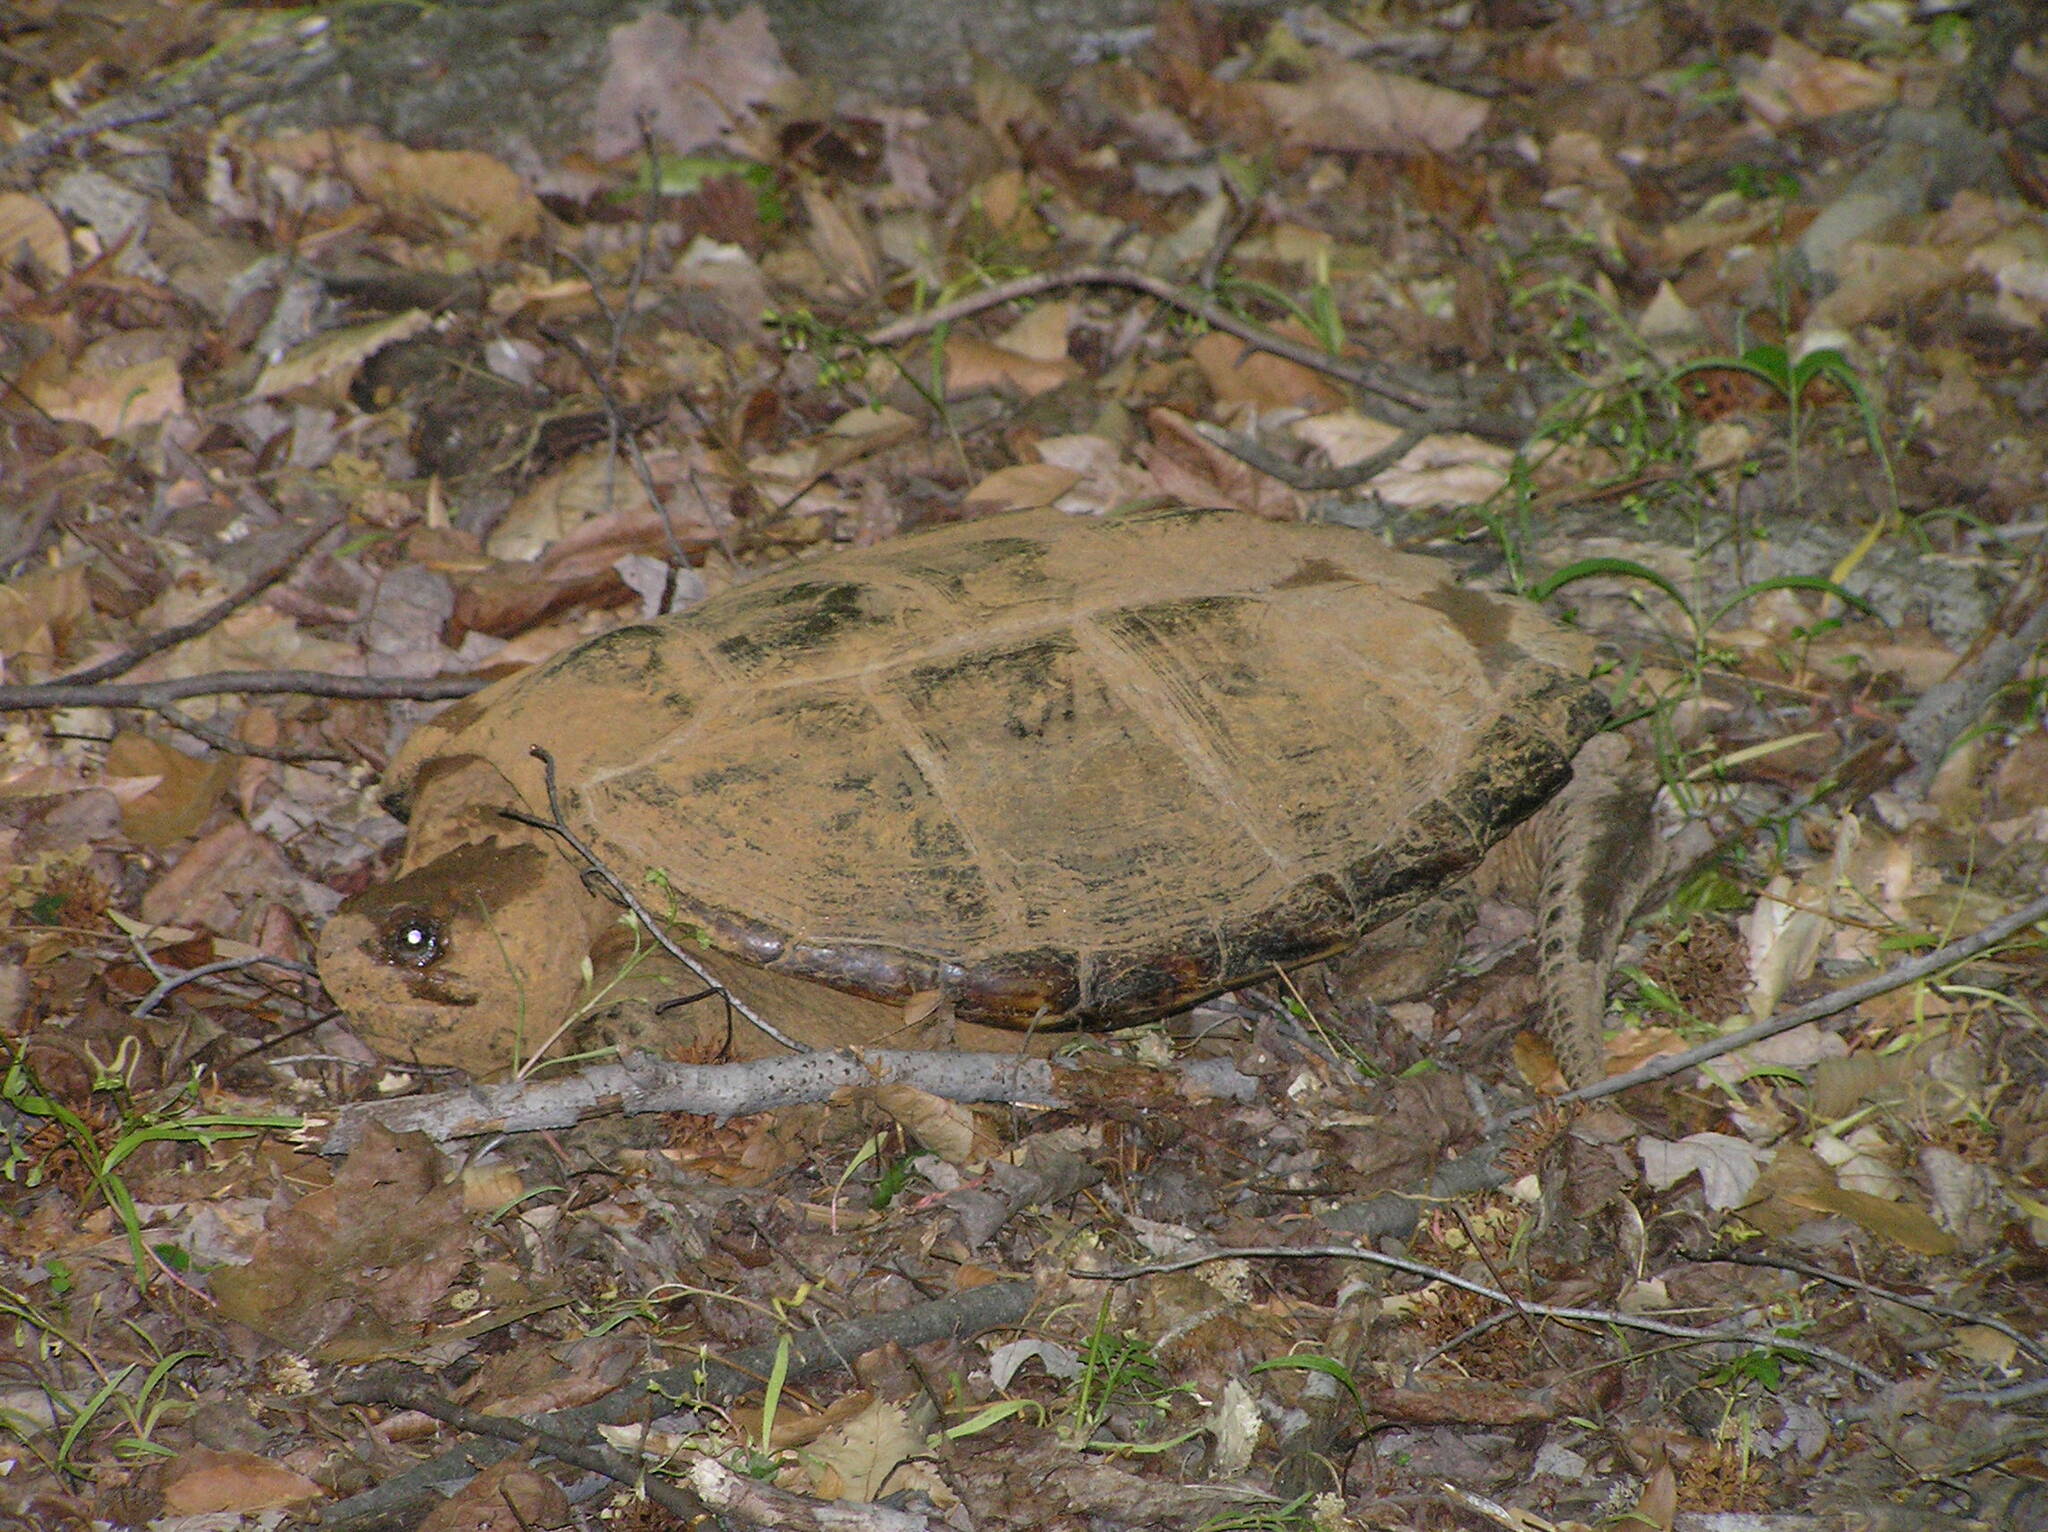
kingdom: Animalia
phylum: Chordata
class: Testudines
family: Chelydridae
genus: Chelydra
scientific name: Chelydra serpentina
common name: Common snapping turtle
